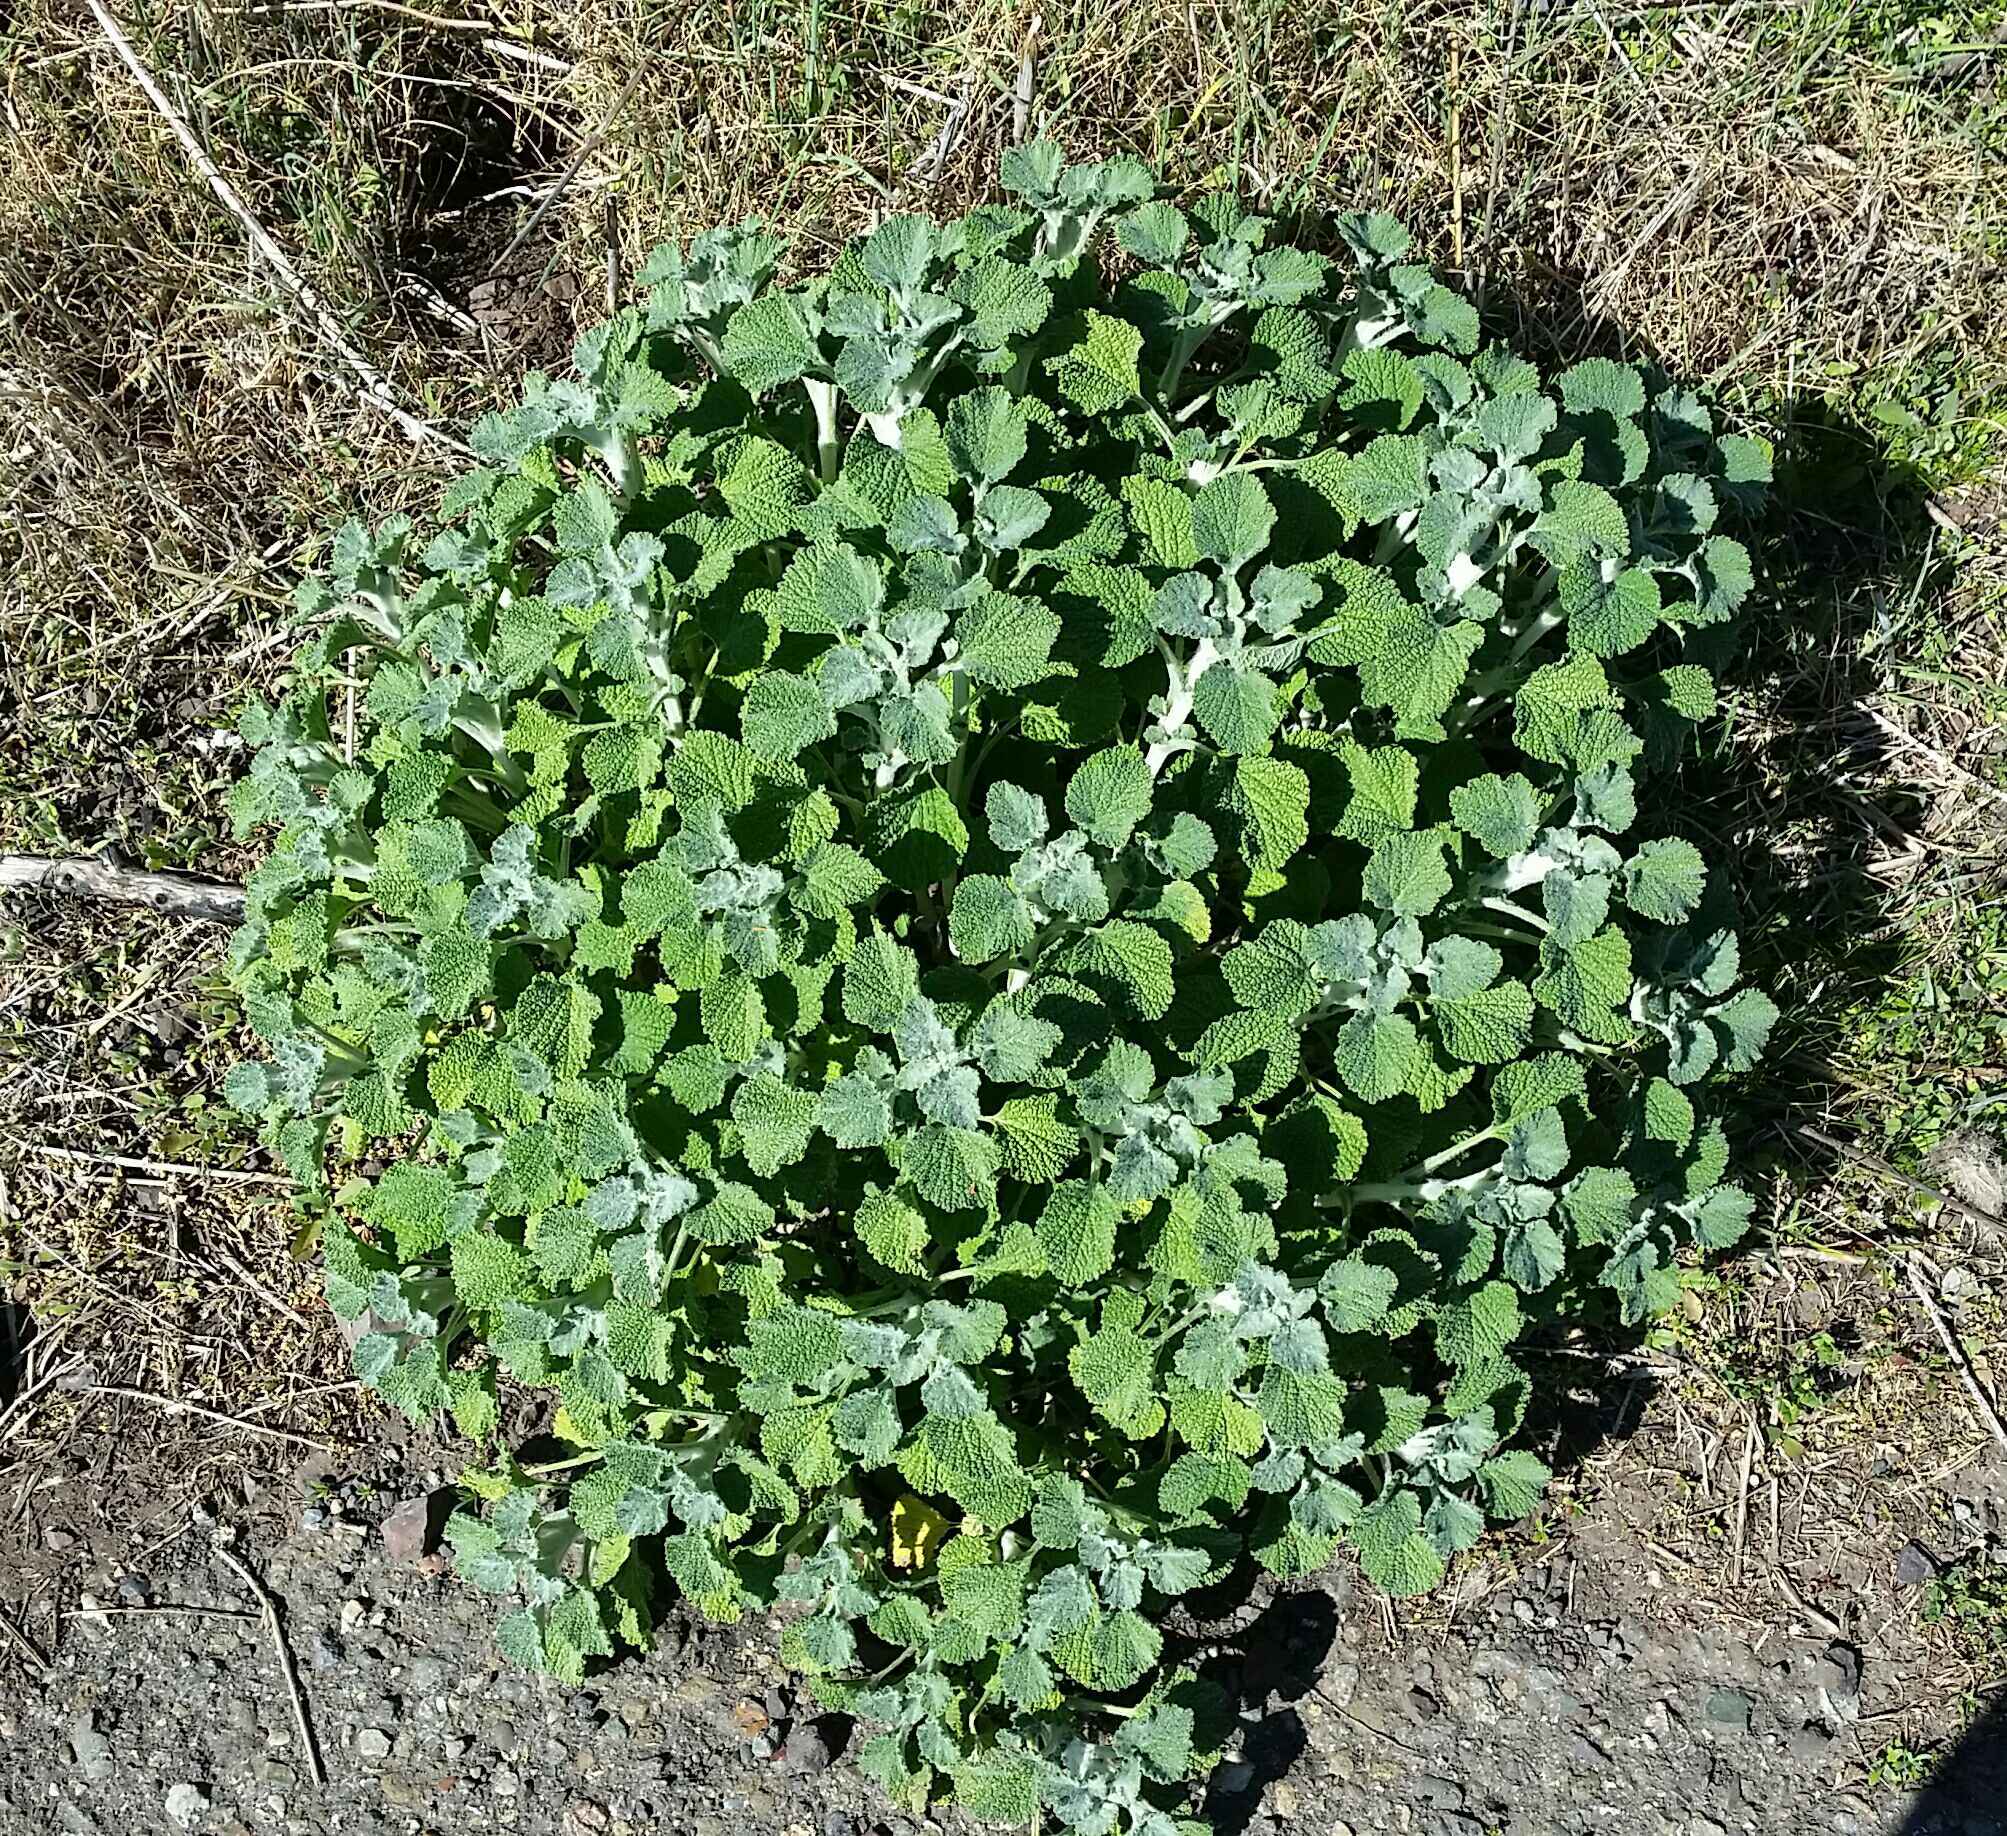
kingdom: Plantae
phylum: Tracheophyta
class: Magnoliopsida
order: Lamiales
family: Lamiaceae
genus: Marrubium
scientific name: Marrubium vulgare
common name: Horehound
